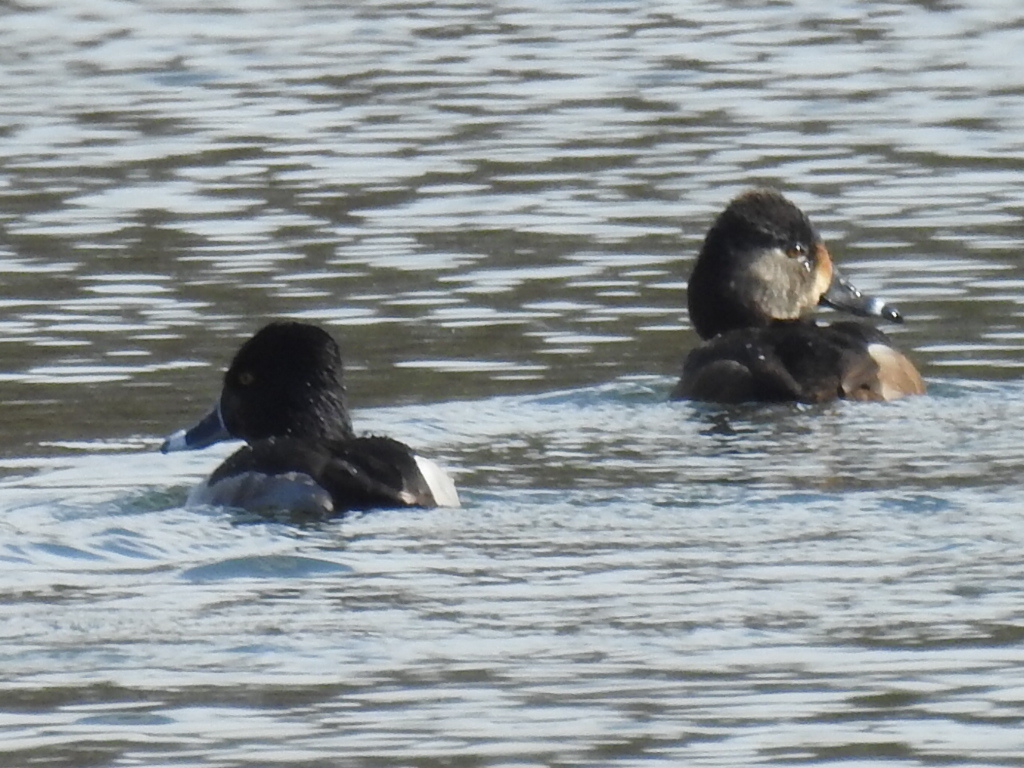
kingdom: Animalia
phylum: Chordata
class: Aves
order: Anseriformes
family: Anatidae
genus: Aythya
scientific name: Aythya collaris
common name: Ring-necked duck
